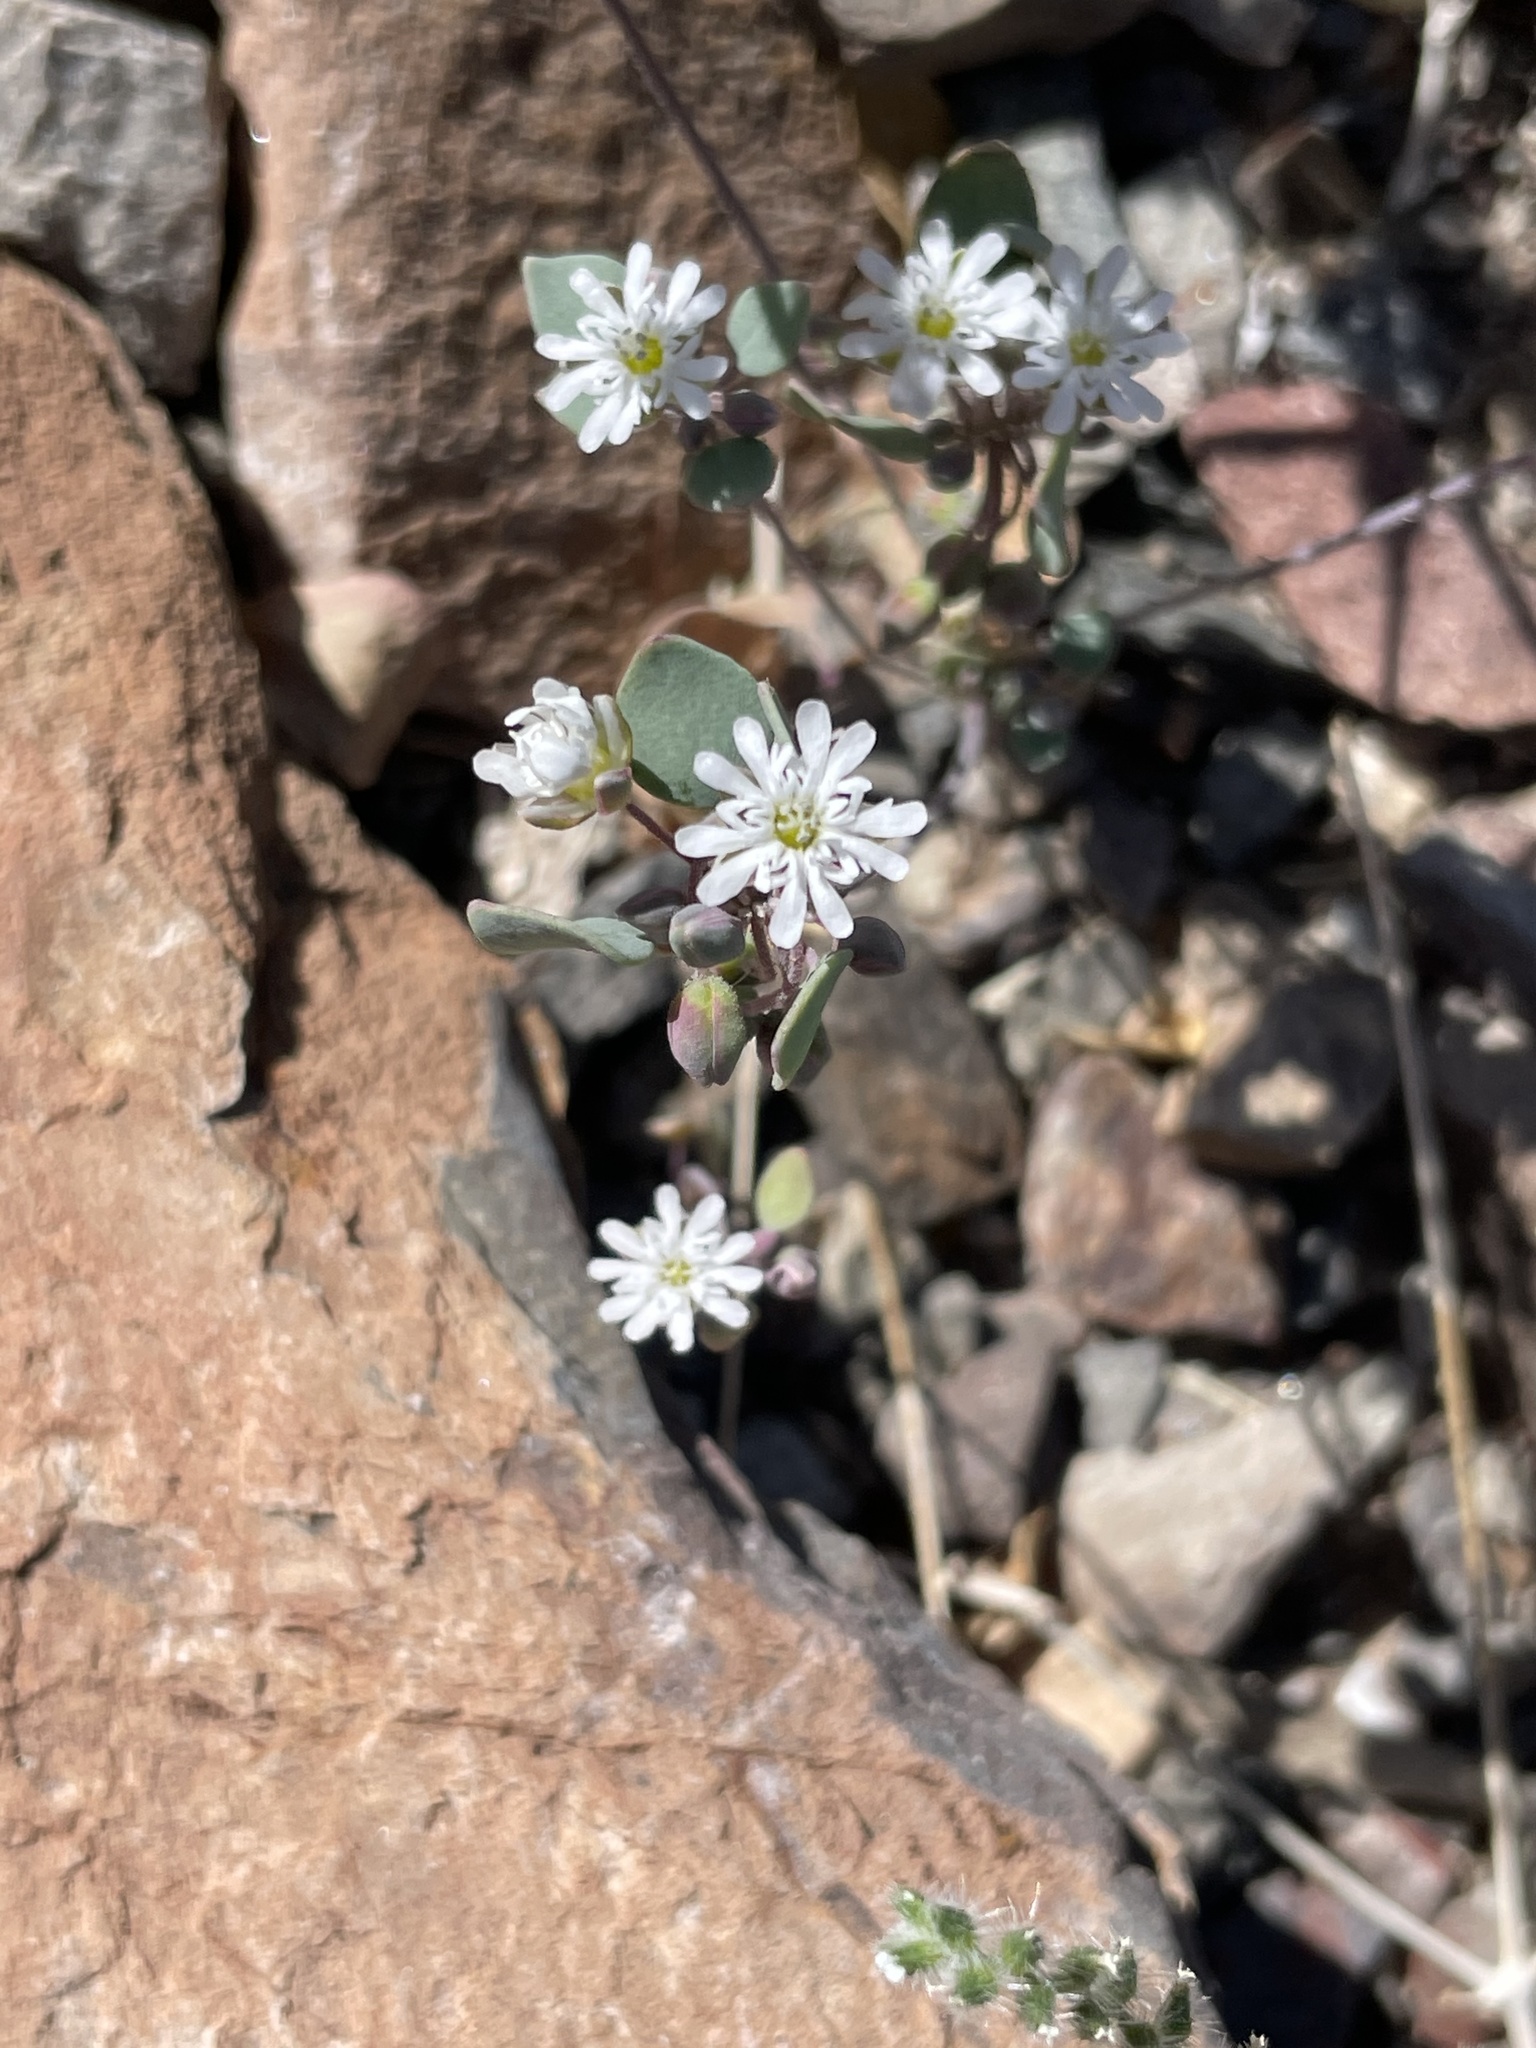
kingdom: Plantae
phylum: Tracheophyta
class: Magnoliopsida
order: Caryophyllales
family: Caryophyllaceae
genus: Drymaria
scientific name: Drymaria holosteoides
